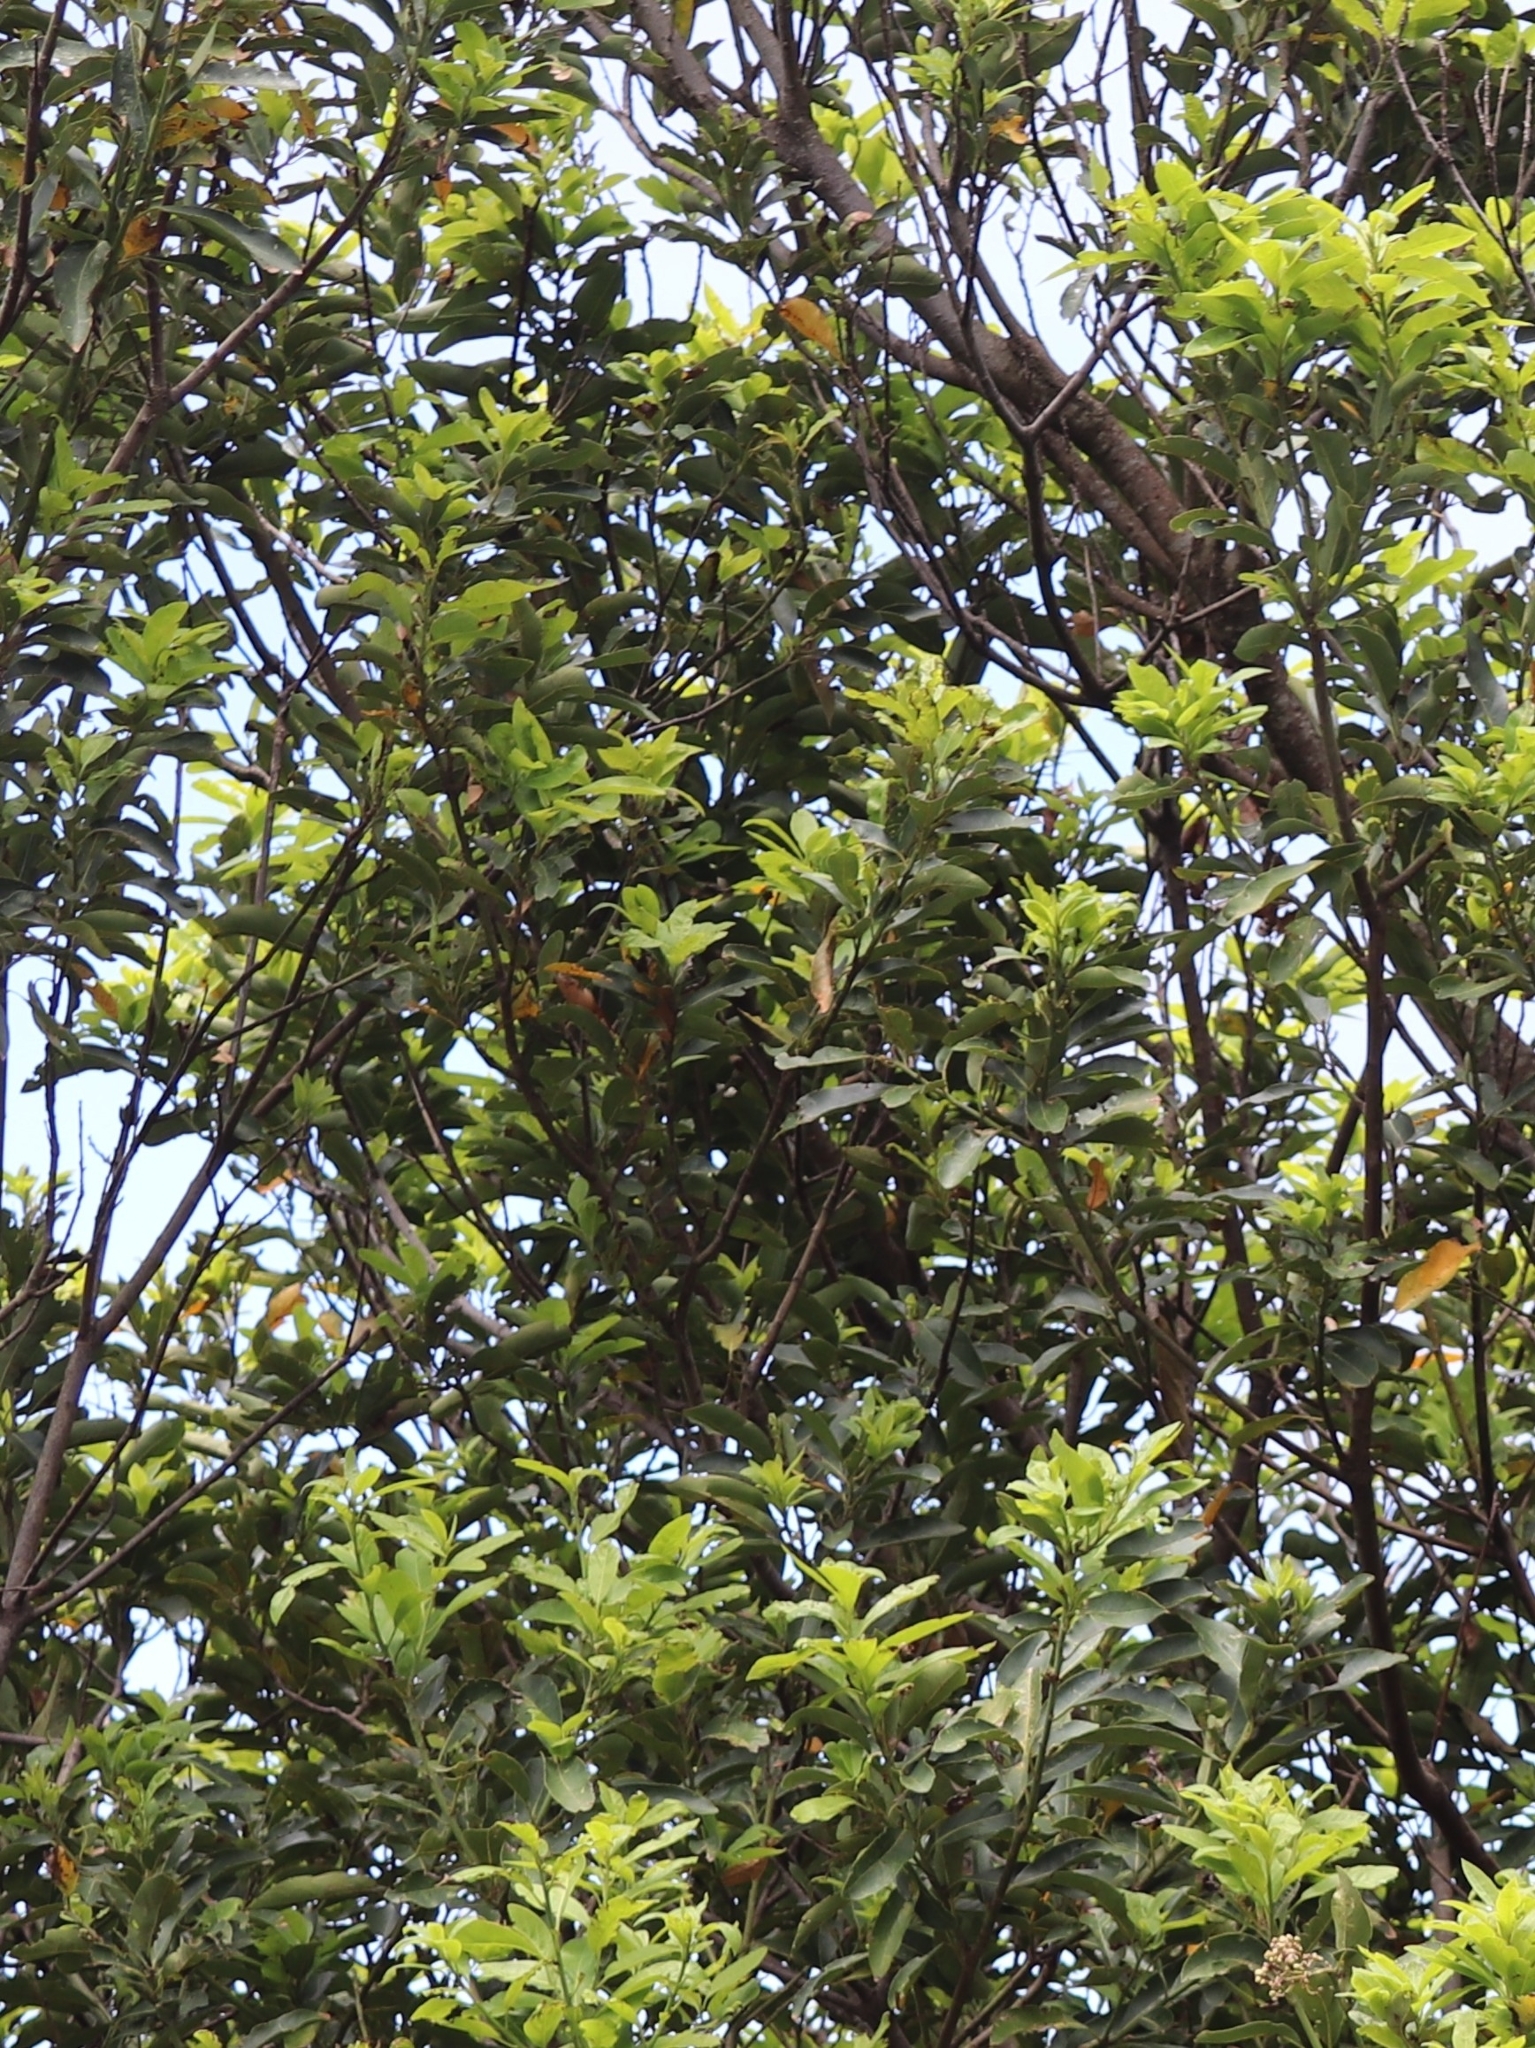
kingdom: Plantae
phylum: Tracheophyta
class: Magnoliopsida
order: Laurales
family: Lauraceae
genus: Laurus
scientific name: Laurus novocanariensis
